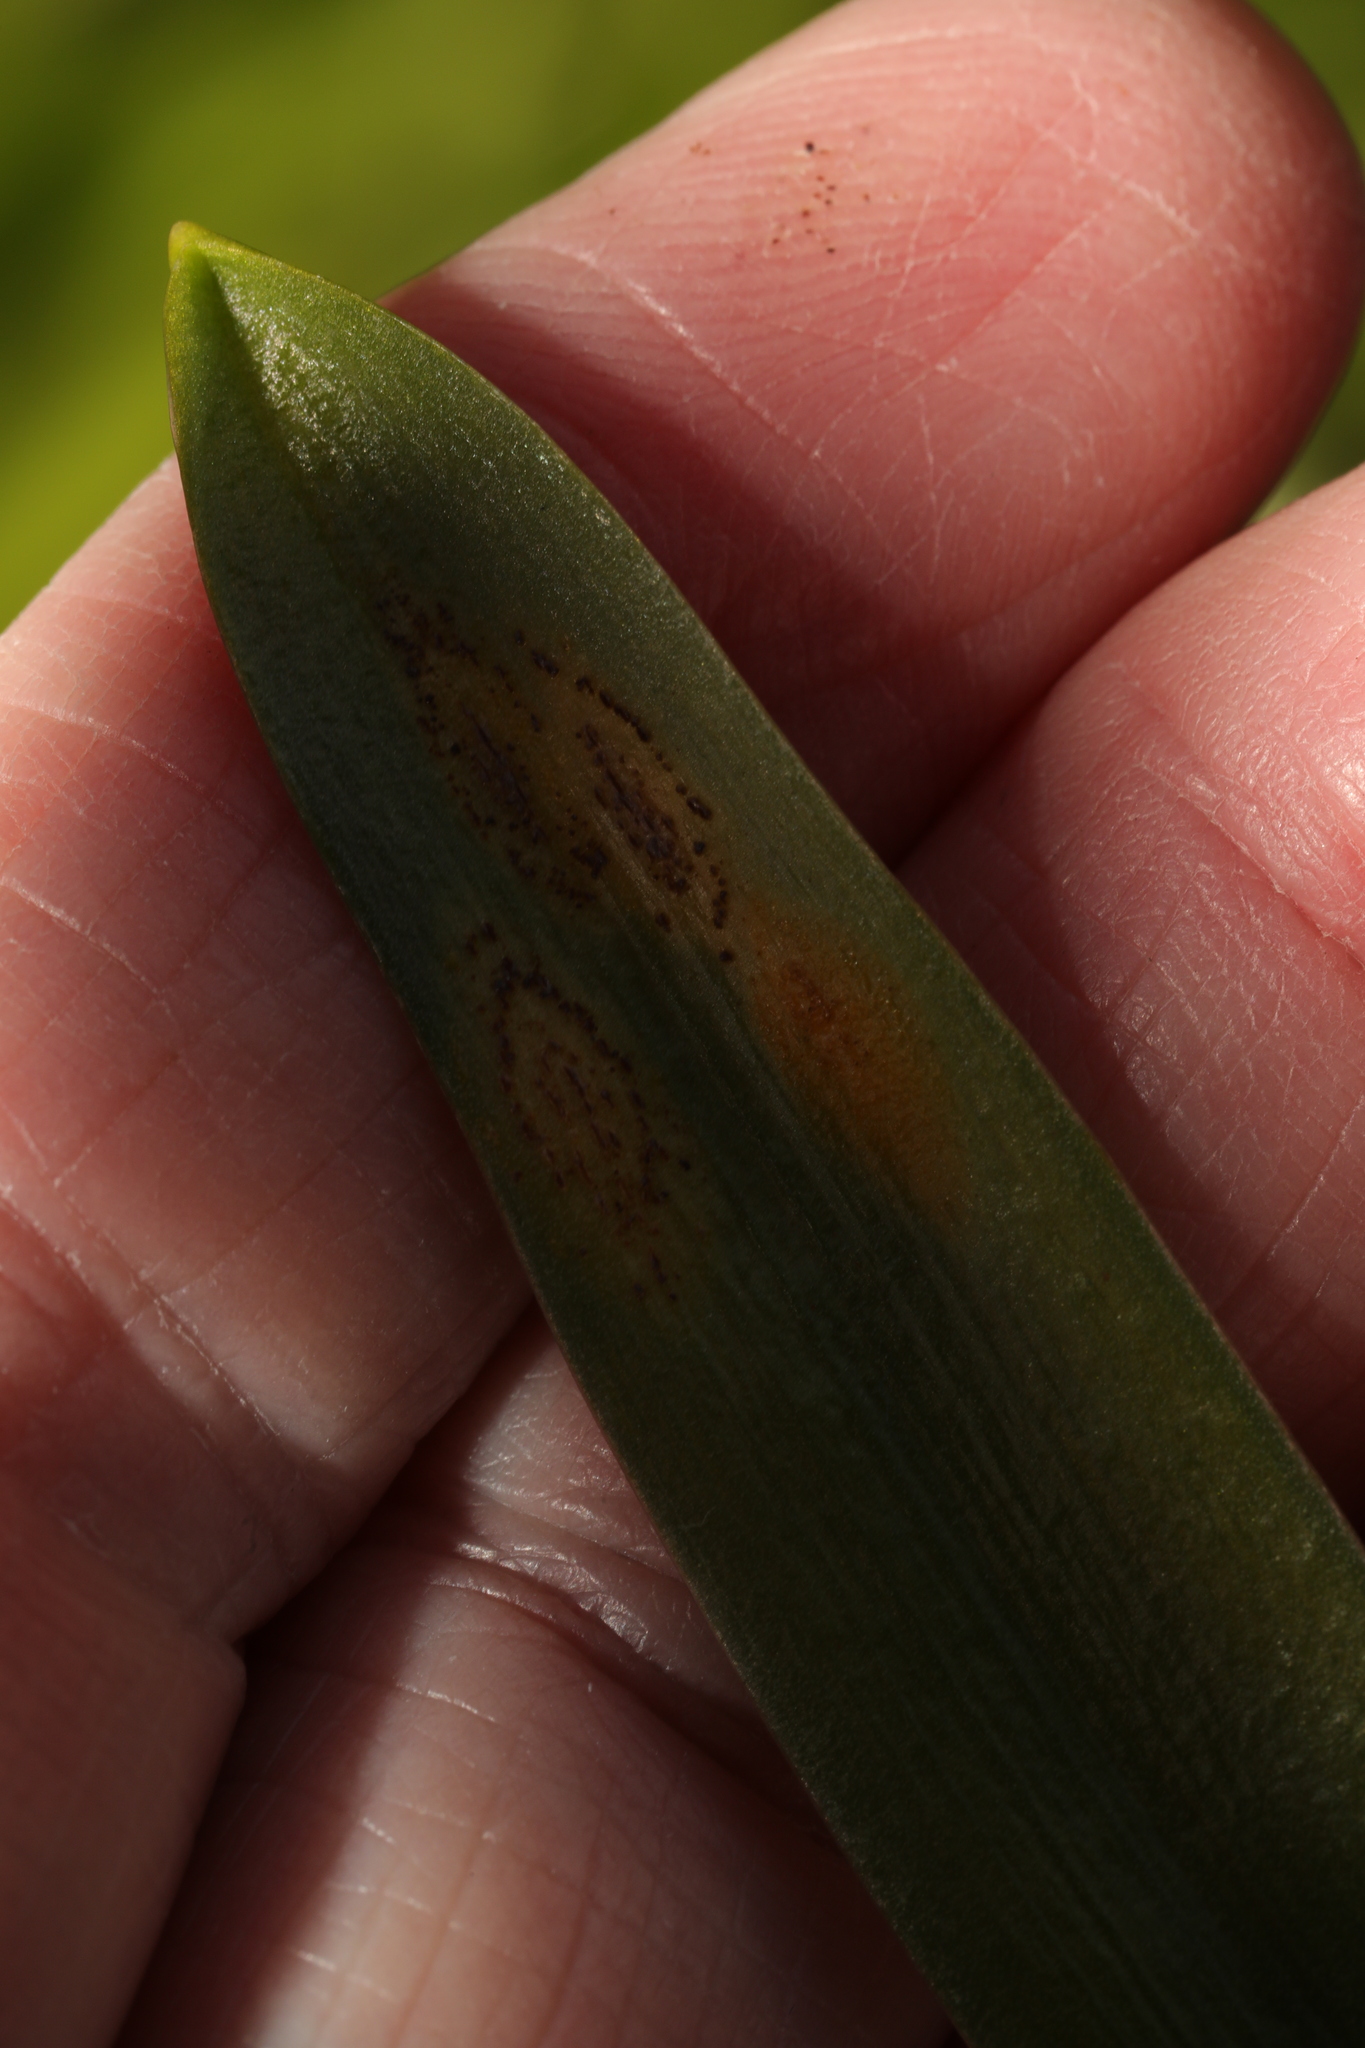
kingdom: Fungi
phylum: Basidiomycota
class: Pucciniomycetes
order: Pucciniales
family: Pucciniaceae
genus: Uromyces
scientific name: Uromyces hyacinthi
